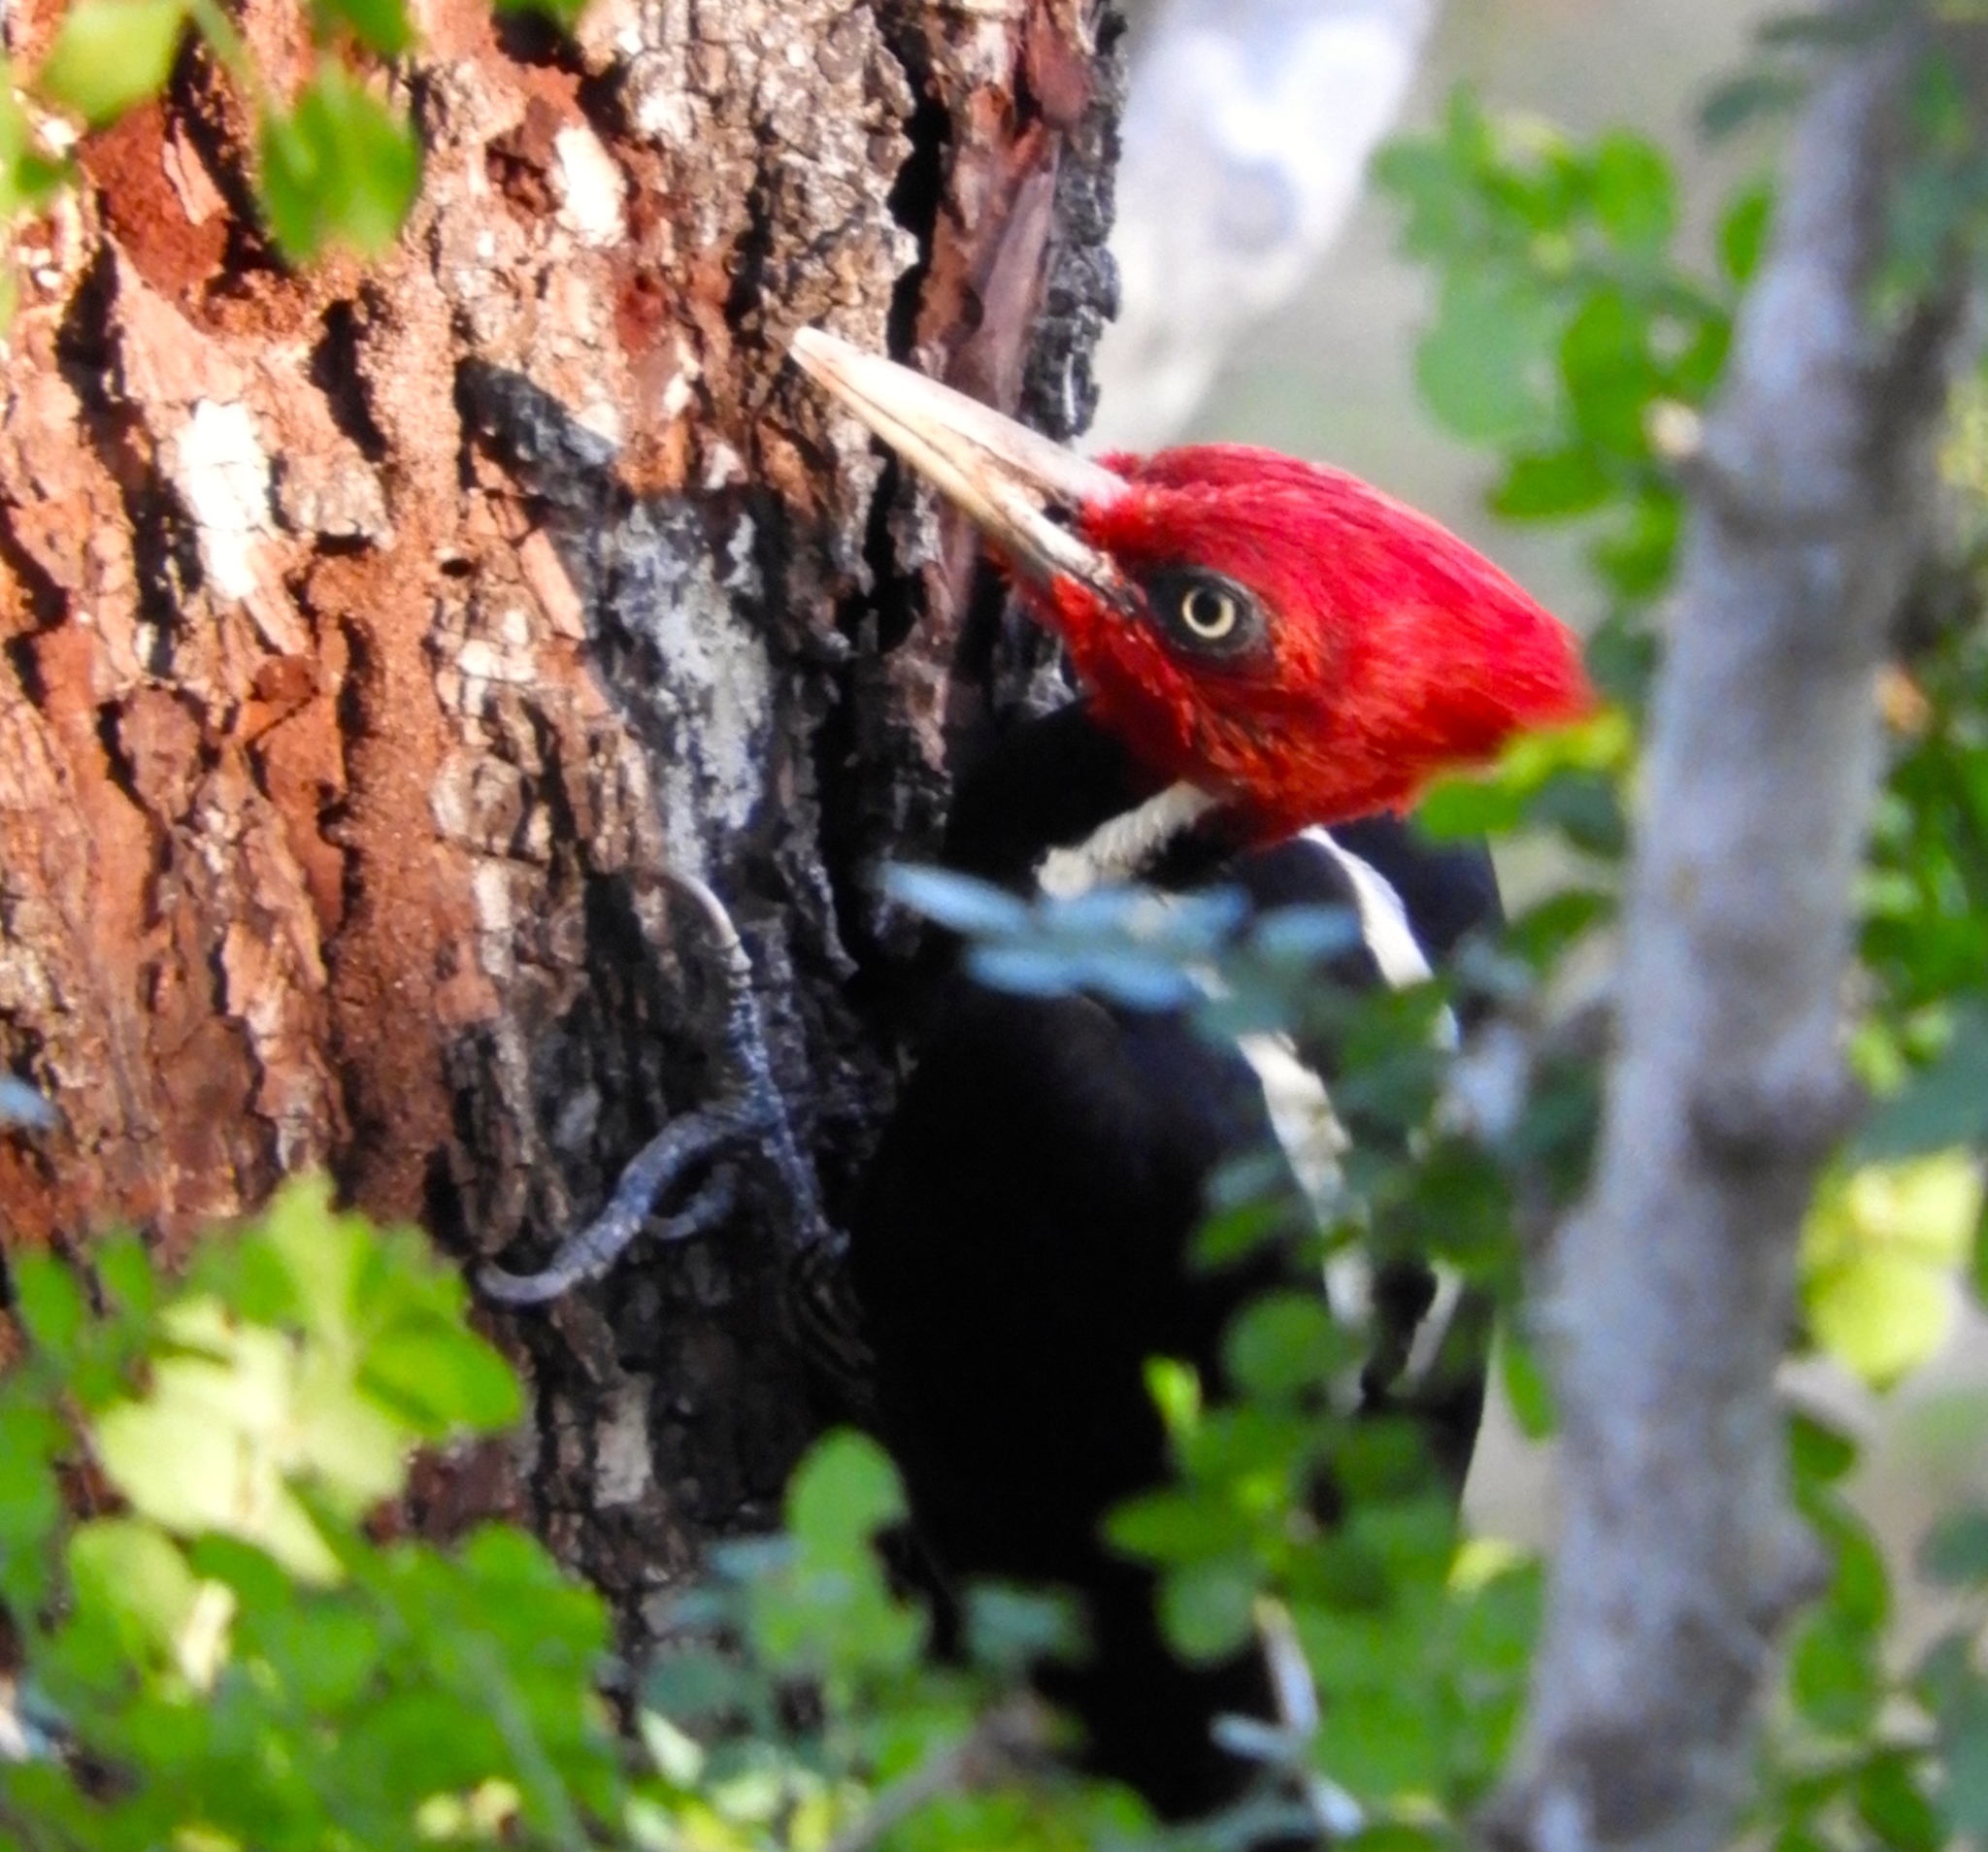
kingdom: Animalia
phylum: Chordata
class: Aves
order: Piciformes
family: Picidae
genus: Campephilus
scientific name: Campephilus guatemalensis
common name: Pale-billed woodpecker
